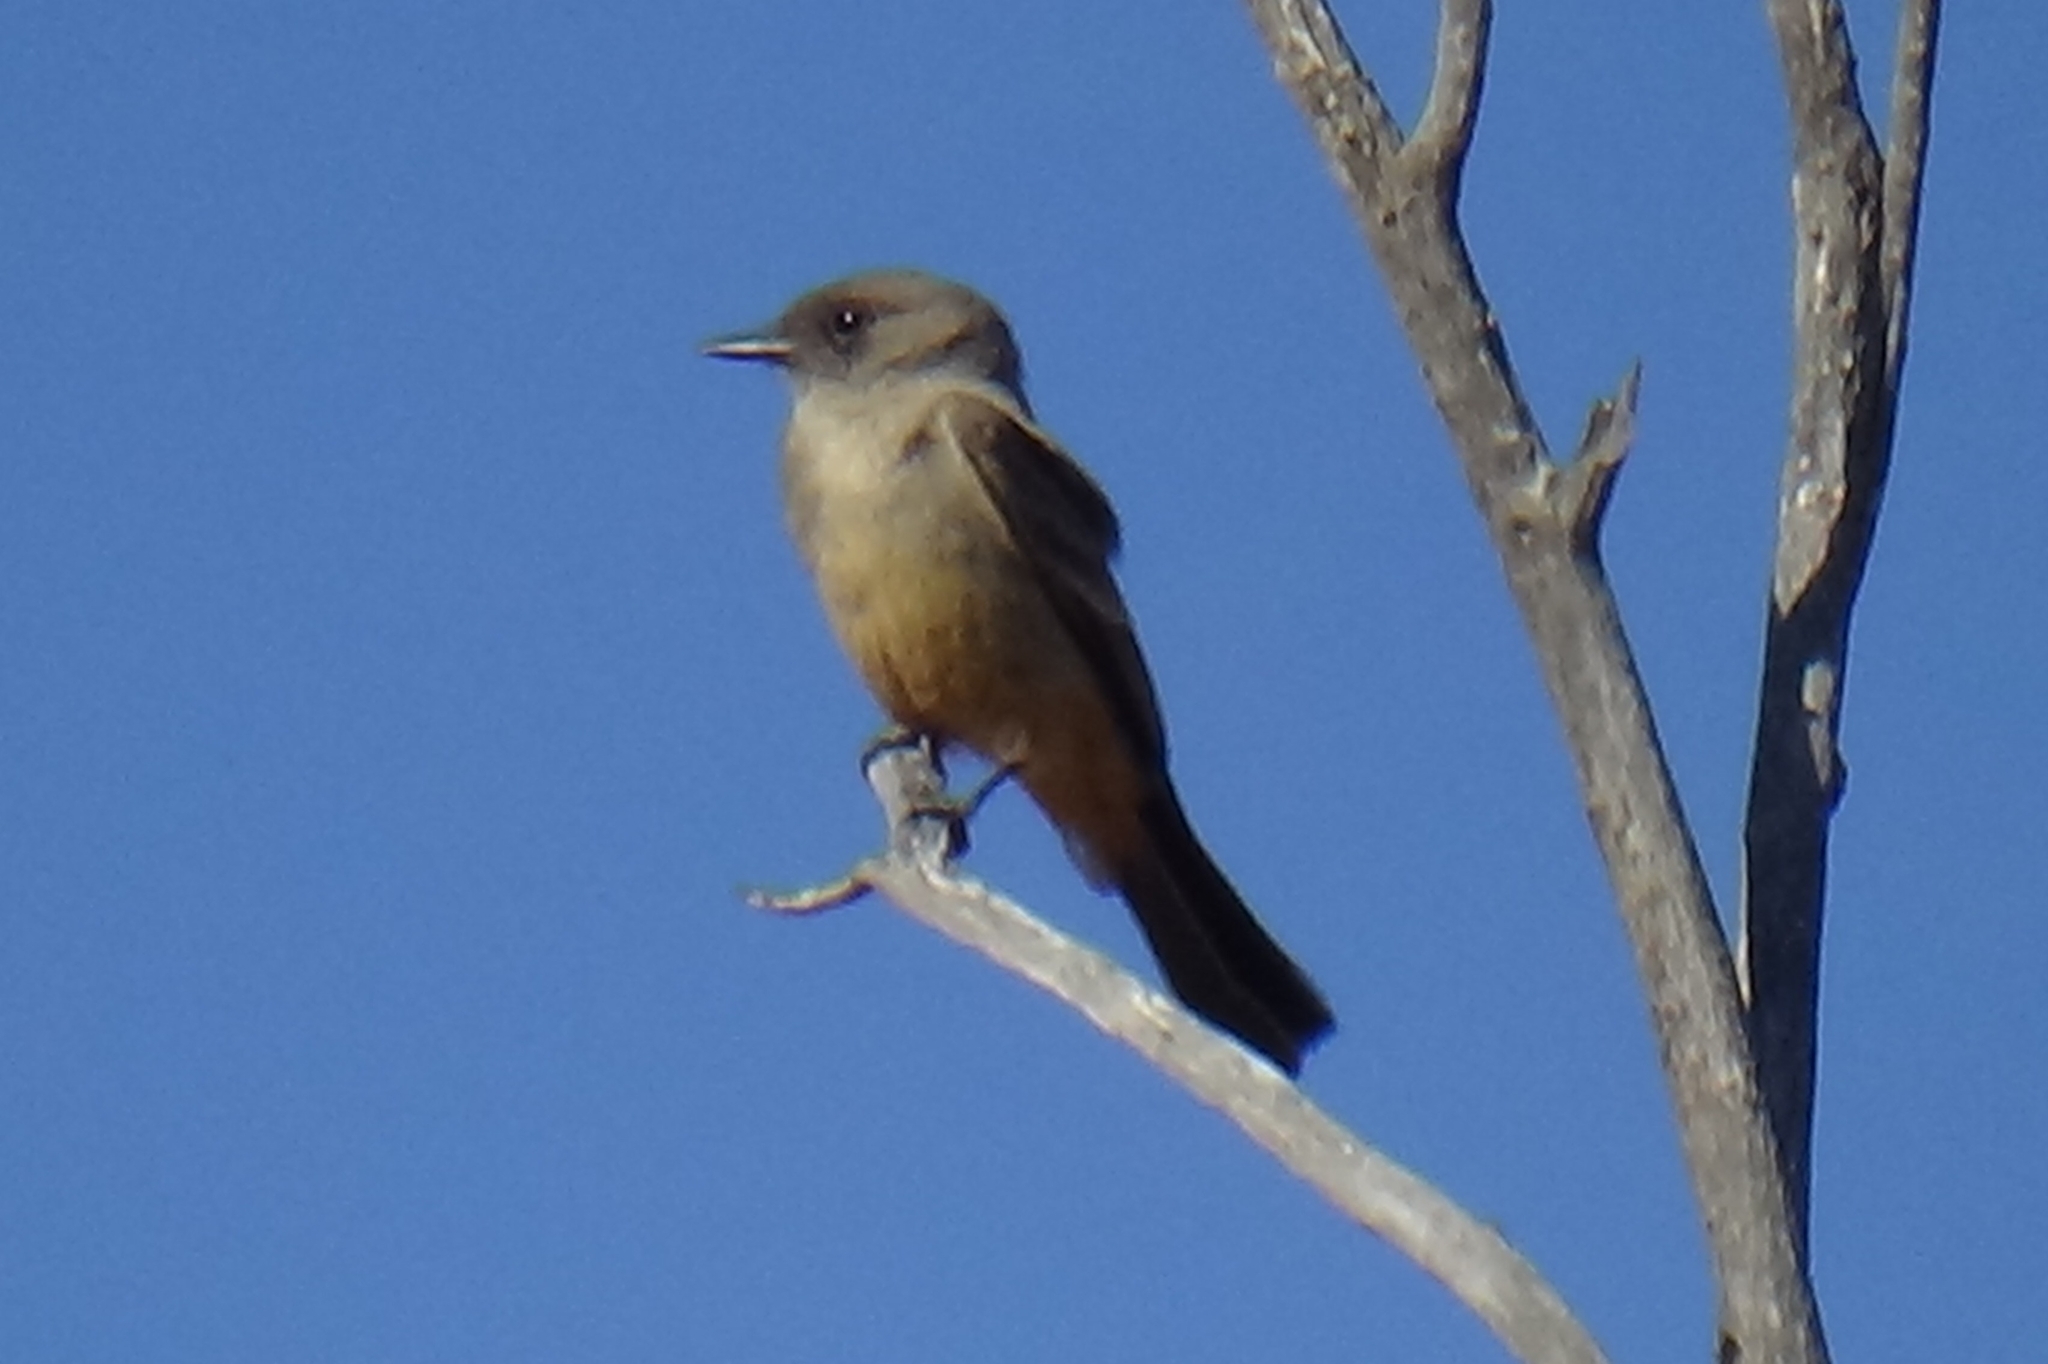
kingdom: Animalia
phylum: Chordata
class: Aves
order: Passeriformes
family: Tyrannidae
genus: Sayornis
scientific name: Sayornis saya
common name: Say's phoebe
